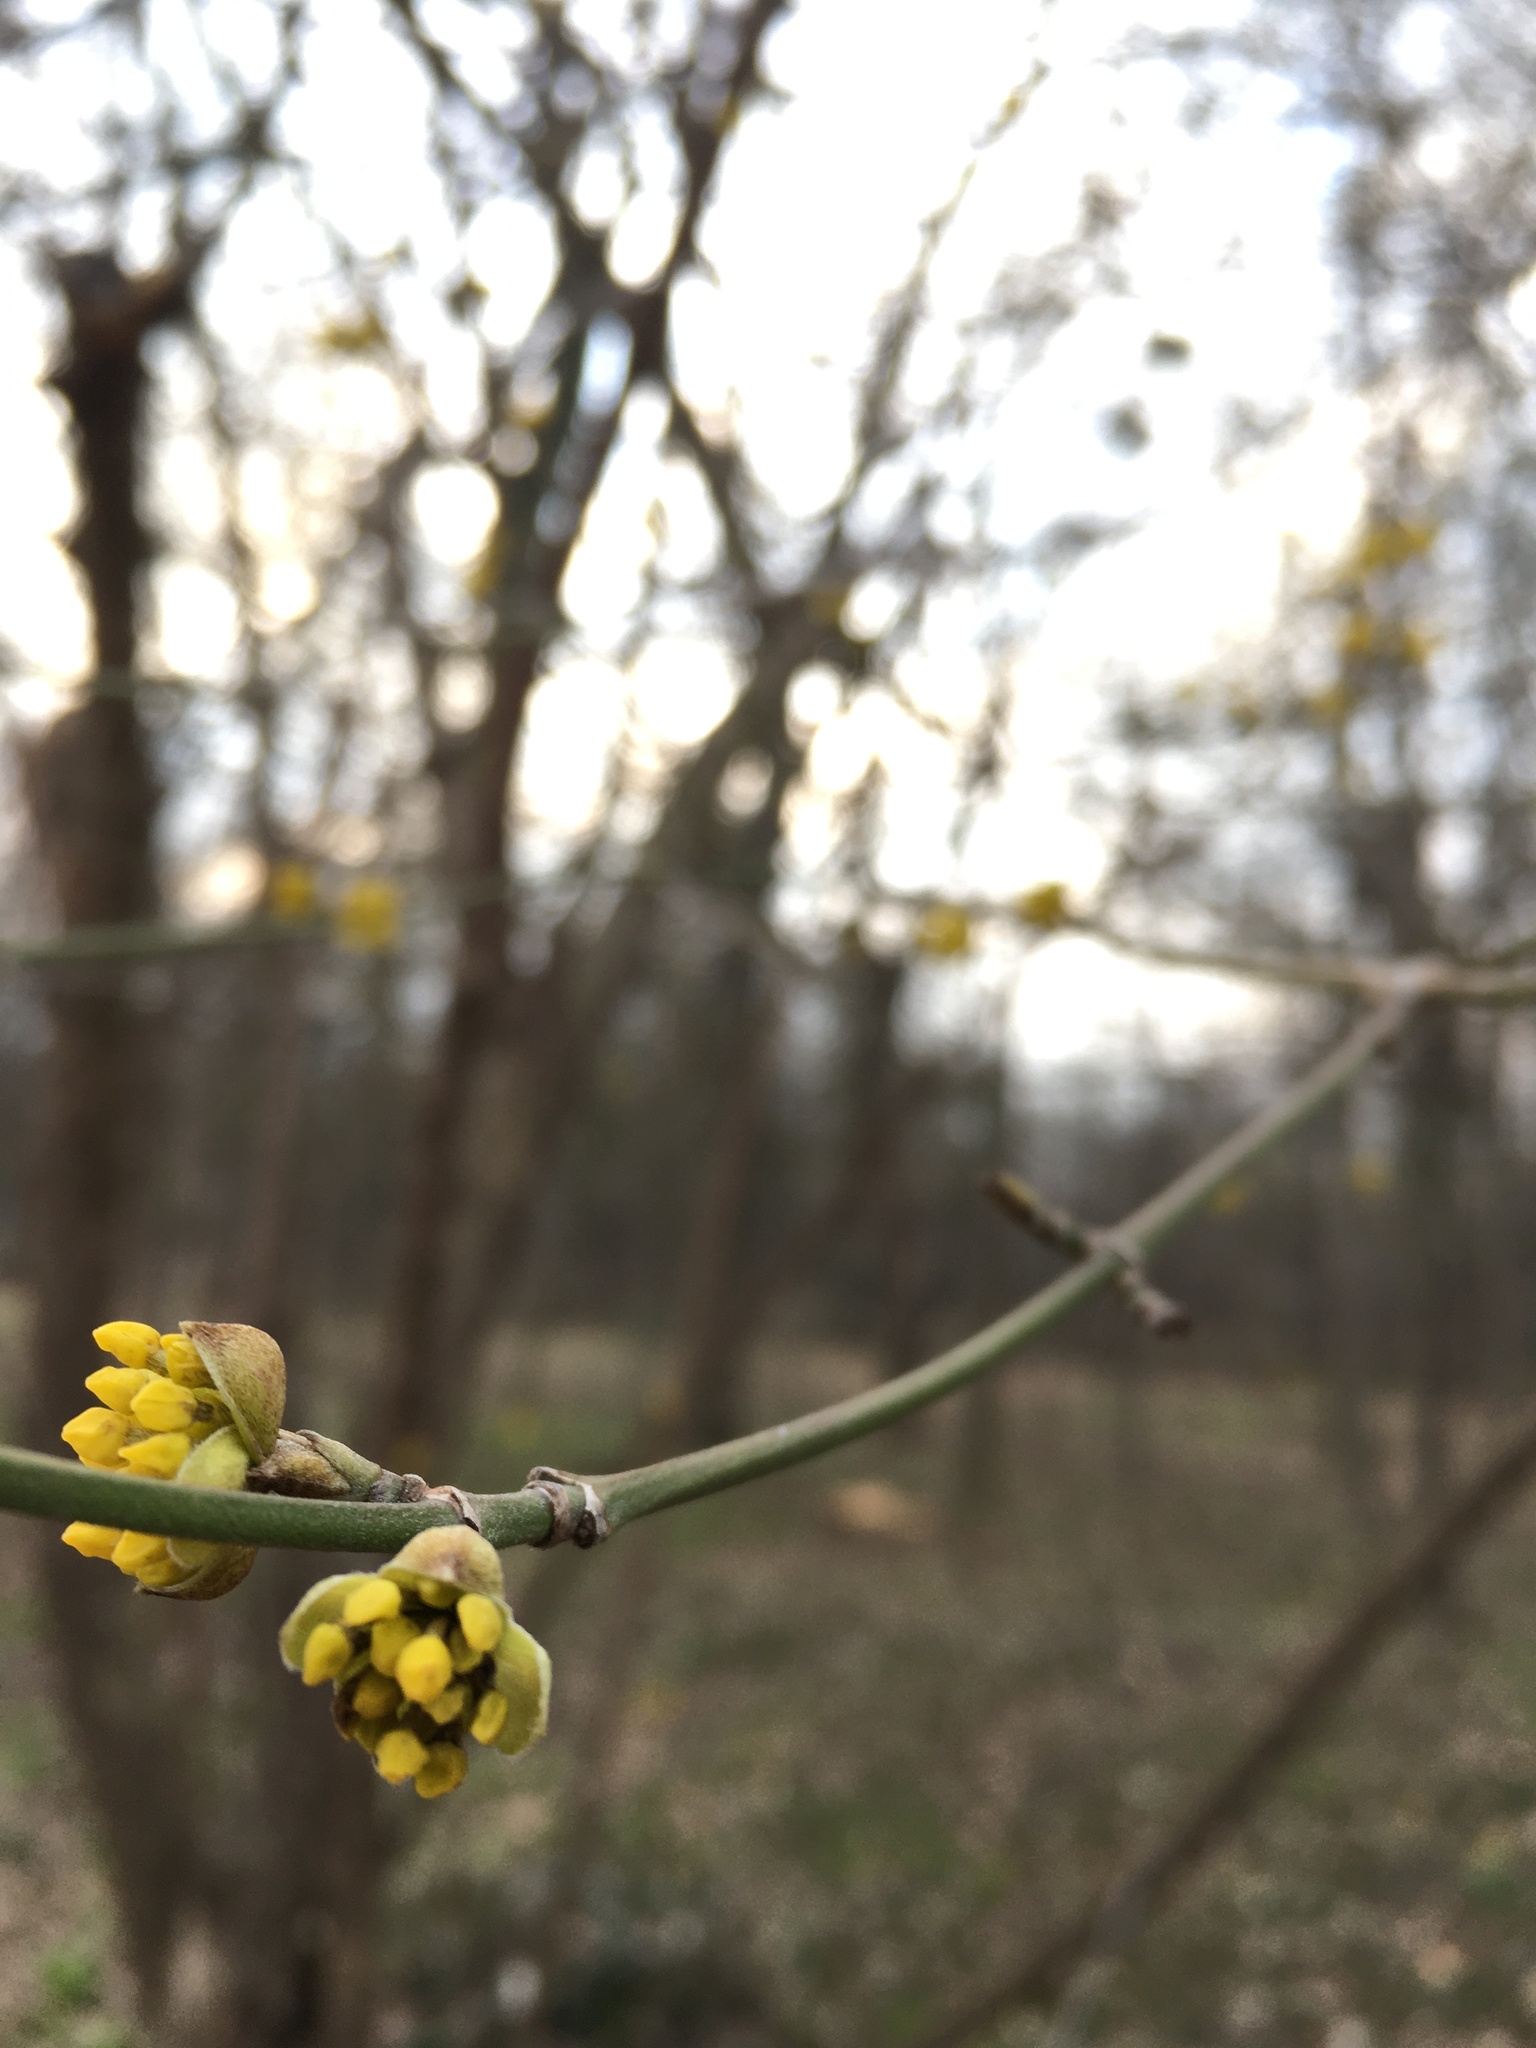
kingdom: Plantae
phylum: Tracheophyta
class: Magnoliopsida
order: Cornales
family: Cornaceae
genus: Cornus
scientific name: Cornus mas
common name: Cornelian-cherry
